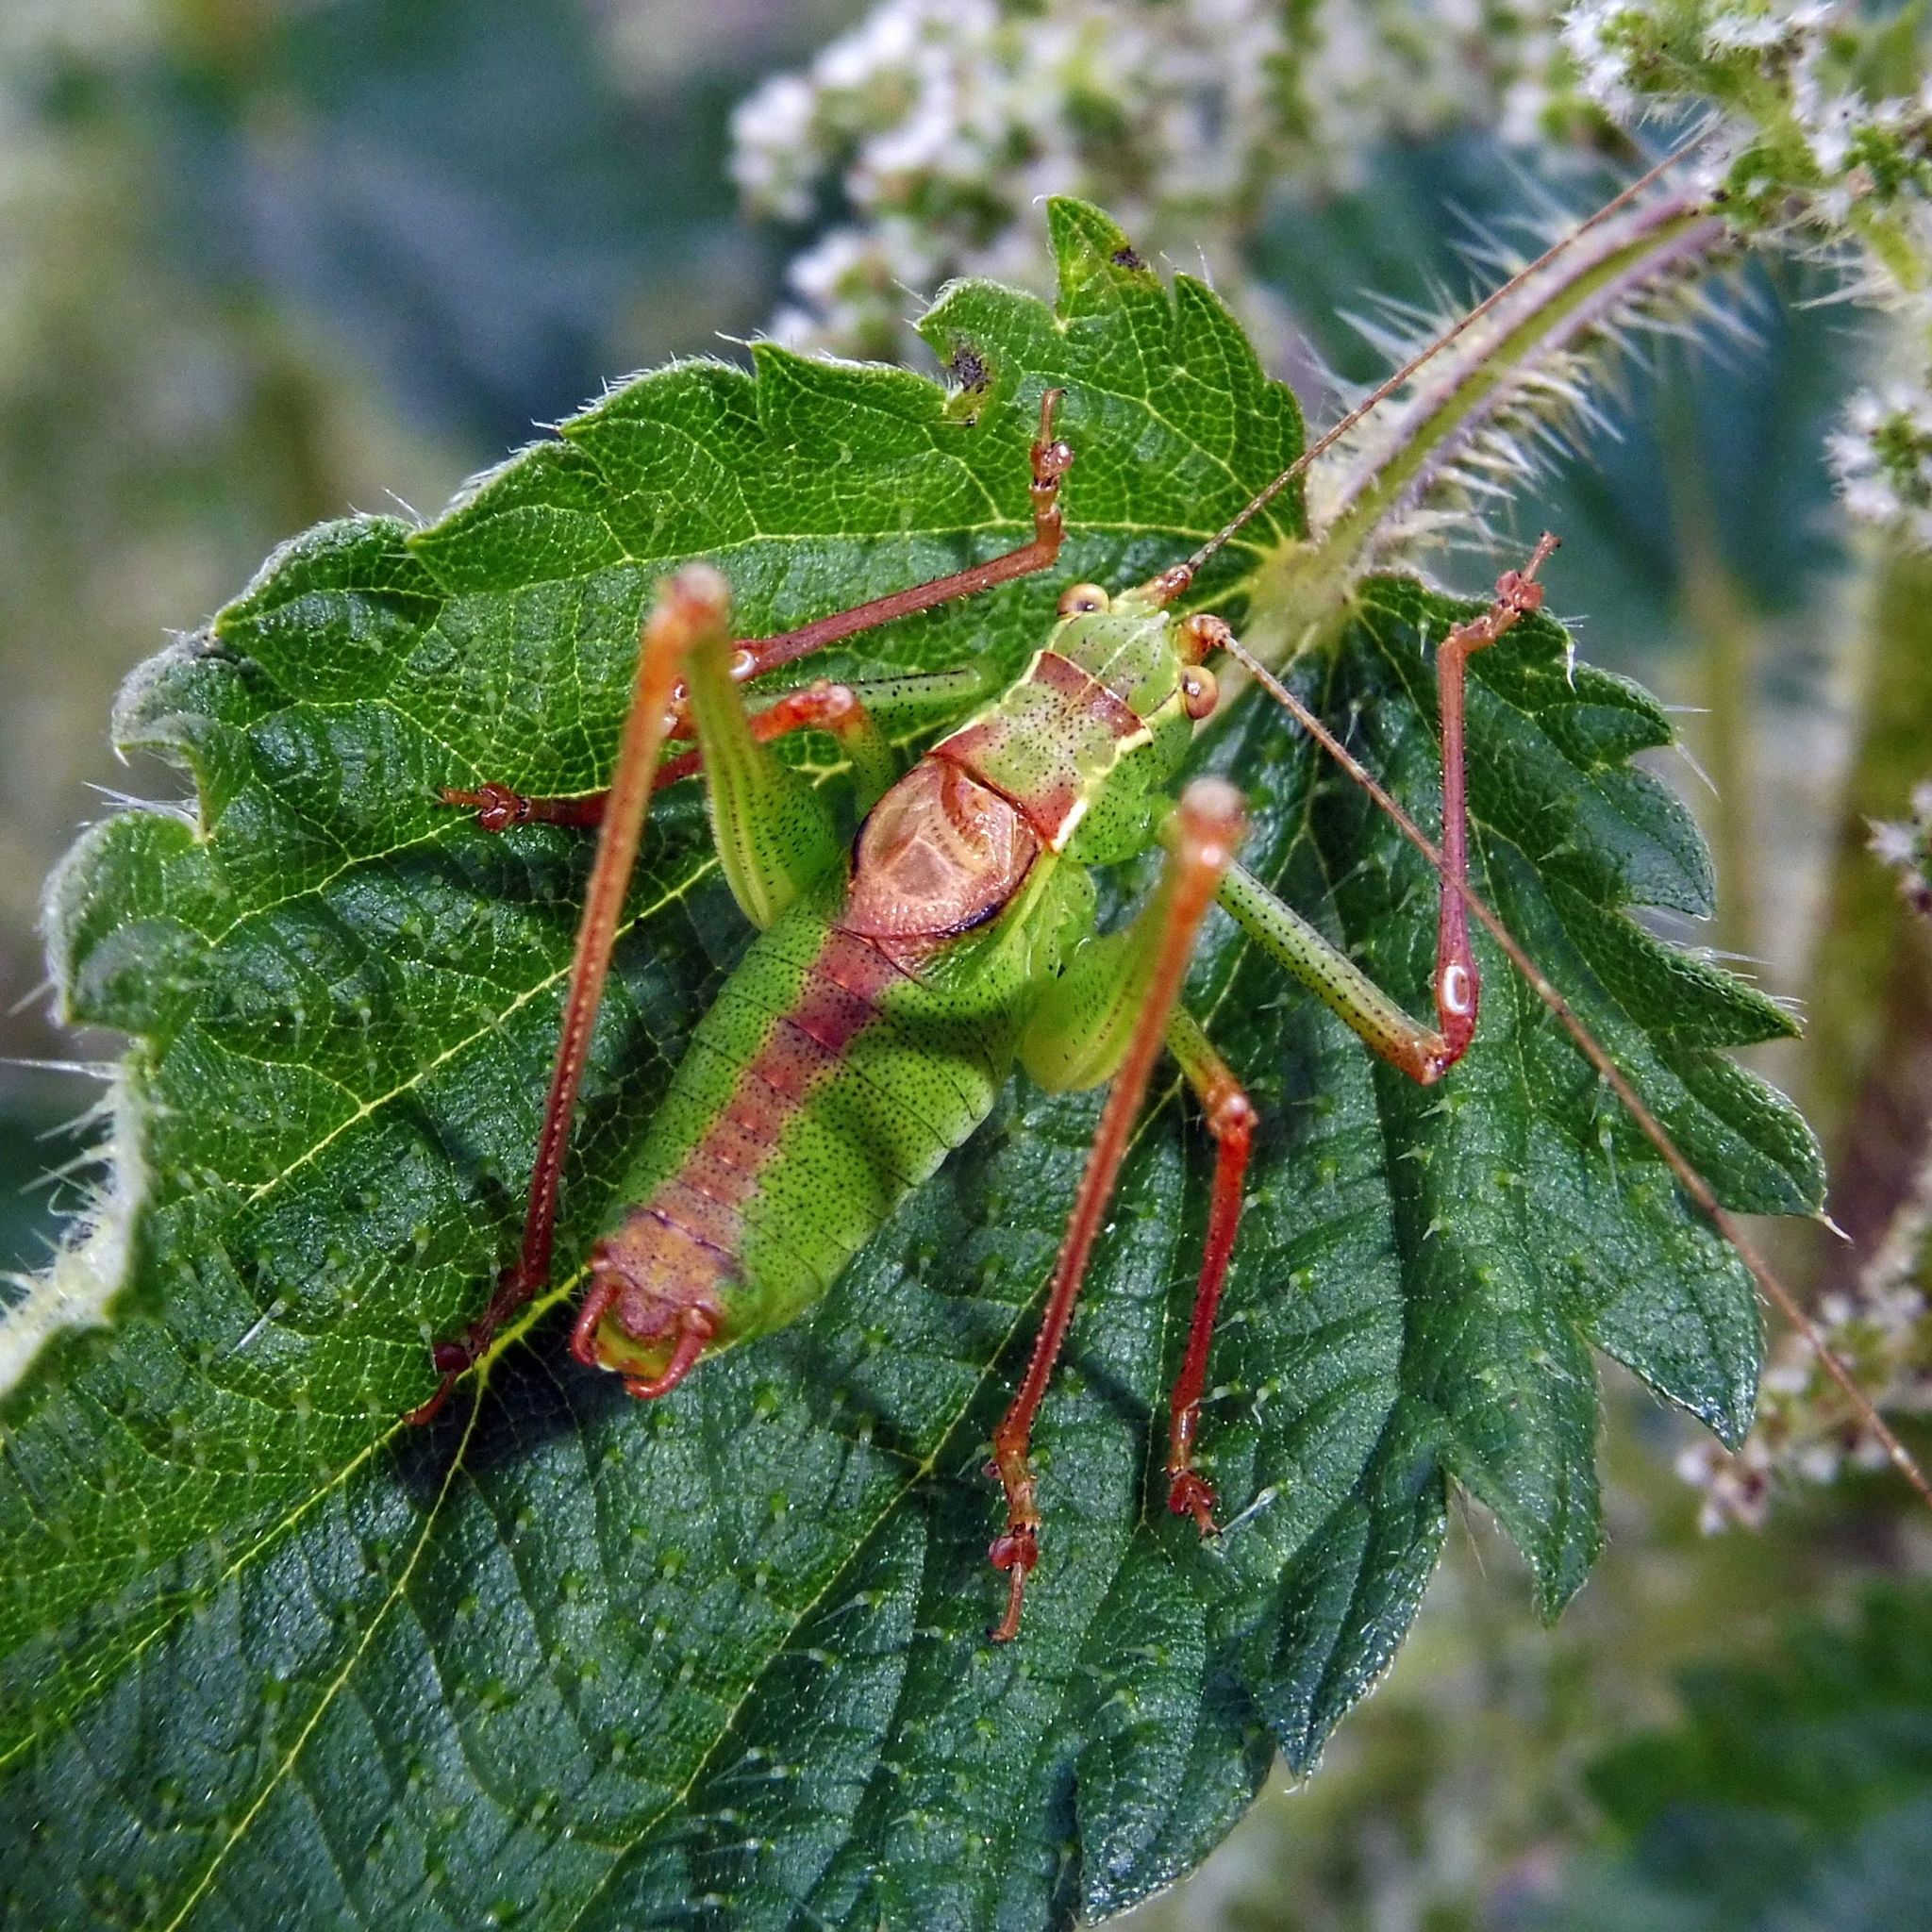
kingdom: Animalia
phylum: Arthropoda
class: Insecta
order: Orthoptera
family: Tettigoniidae
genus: Leptophyes
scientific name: Leptophyes punctatissima
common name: Speckled bush-cricket
